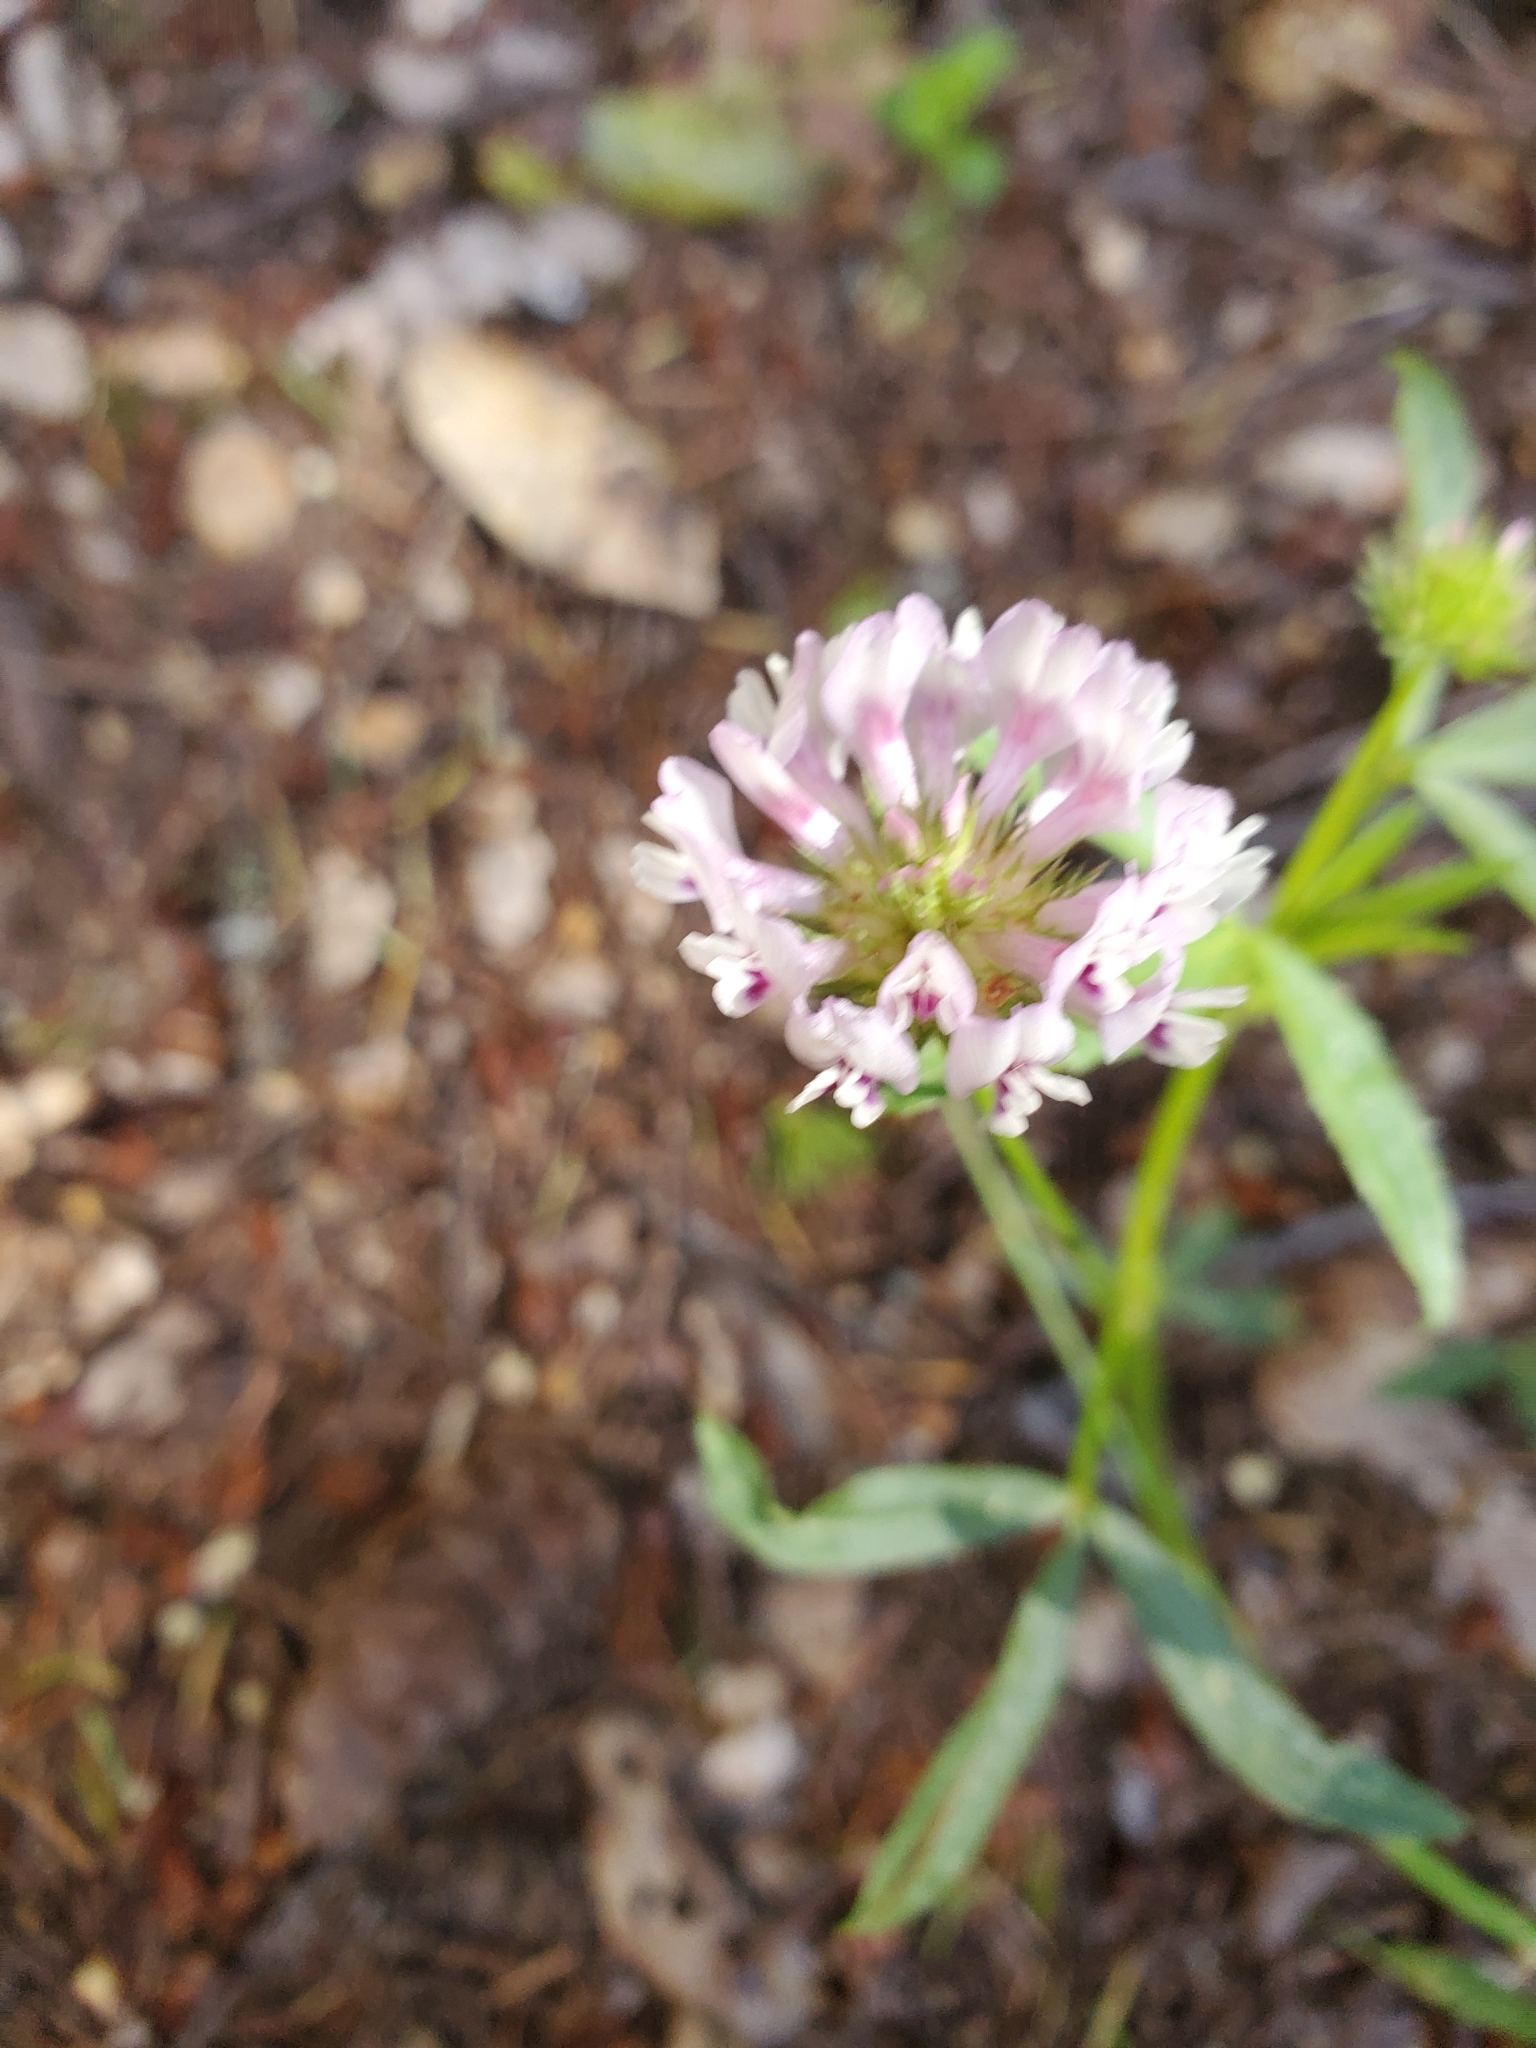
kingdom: Plantae
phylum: Tracheophyta
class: Magnoliopsida
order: Fabales
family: Fabaceae
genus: Trifolium
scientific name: Trifolium willdenovii
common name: Tomcat clover
